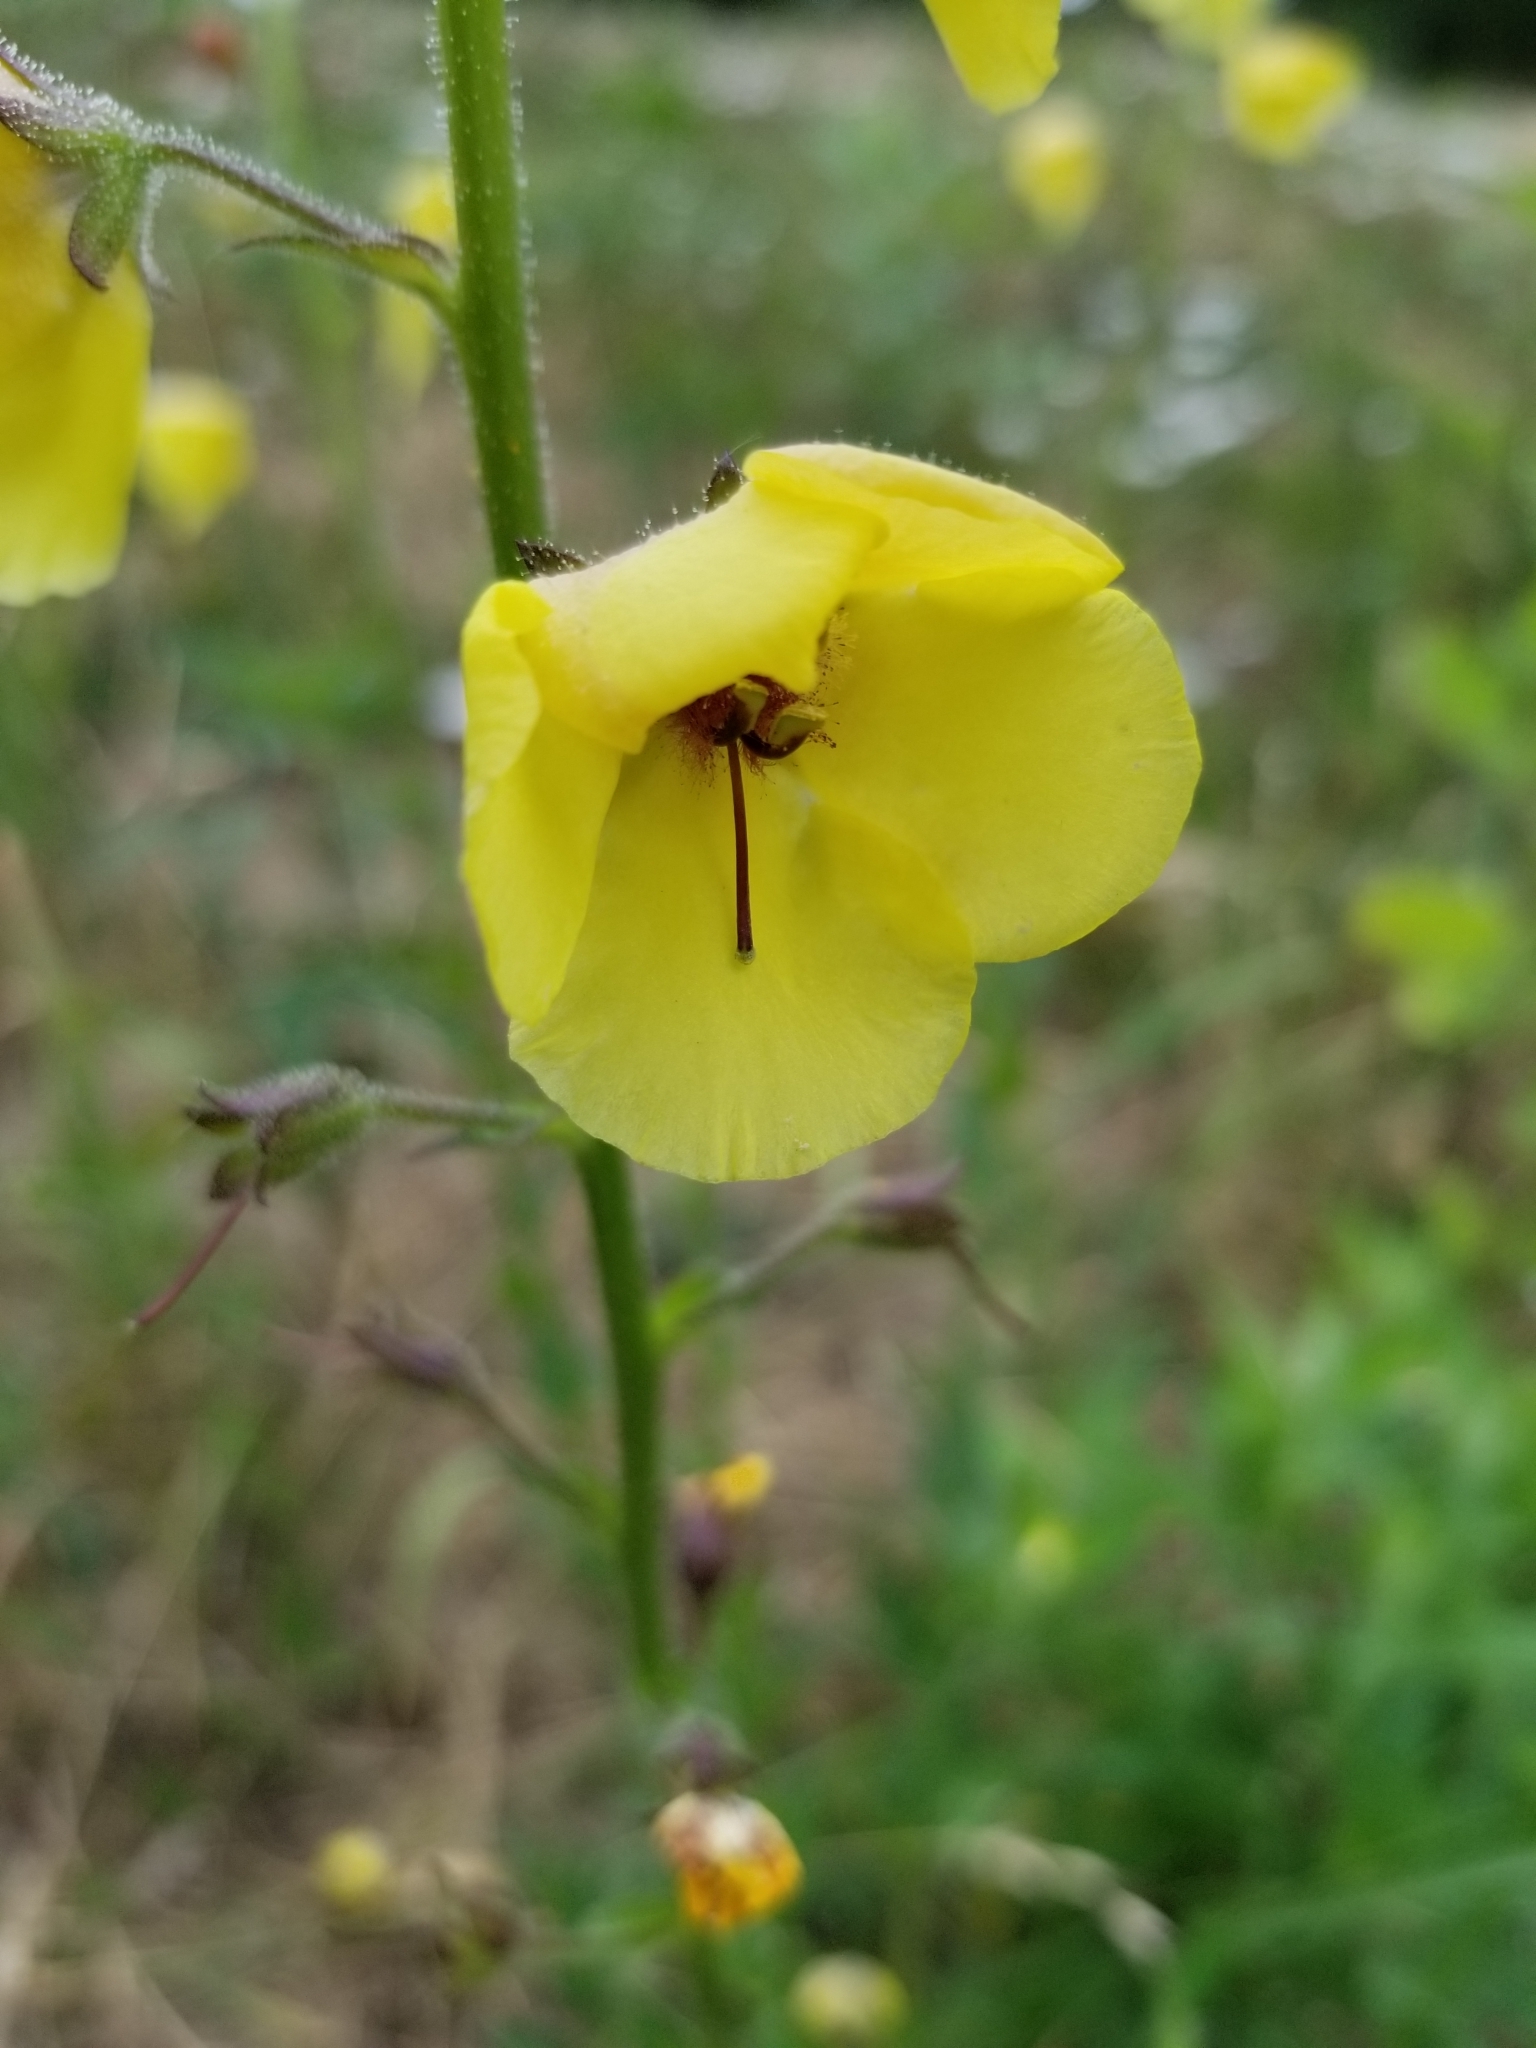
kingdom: Plantae
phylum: Tracheophyta
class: Magnoliopsida
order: Lamiales
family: Scrophulariaceae
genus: Verbascum
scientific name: Verbascum blattaria
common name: Moth mullein
